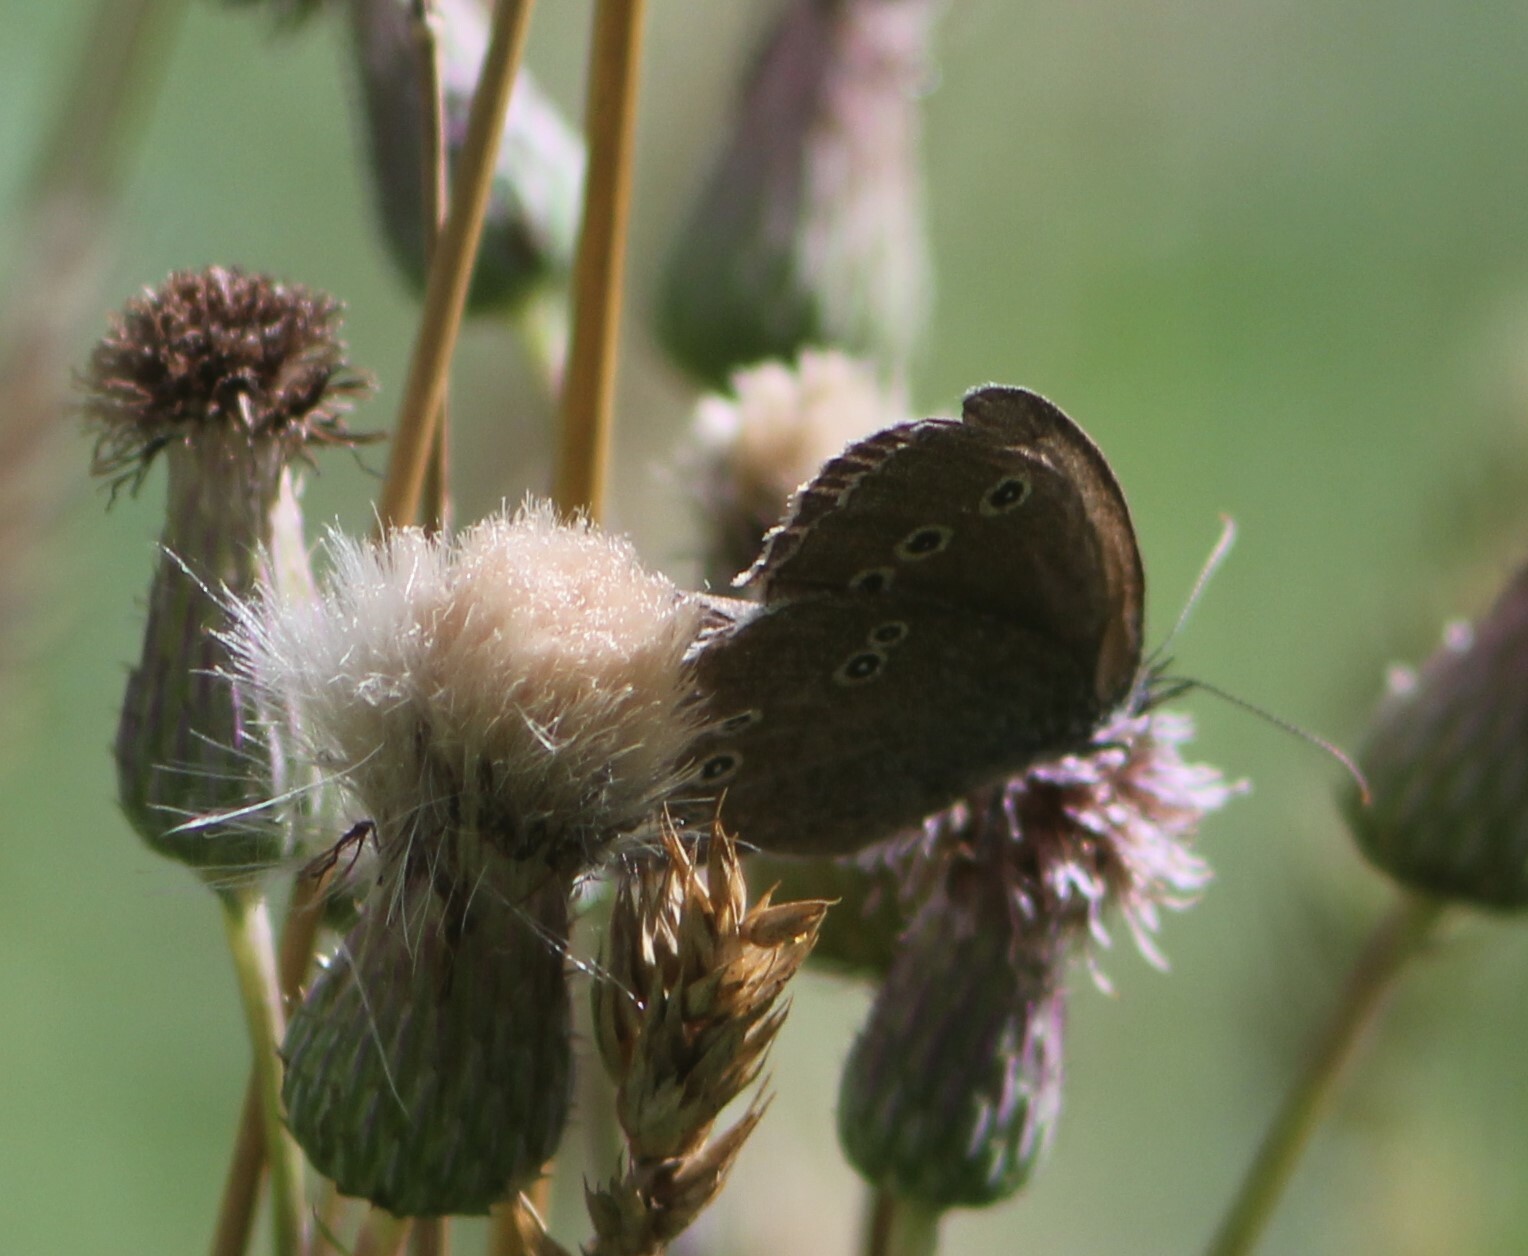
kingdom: Animalia
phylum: Arthropoda
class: Insecta
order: Lepidoptera
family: Nymphalidae
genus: Aphantopus
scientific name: Aphantopus hyperantus
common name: Ringlet
